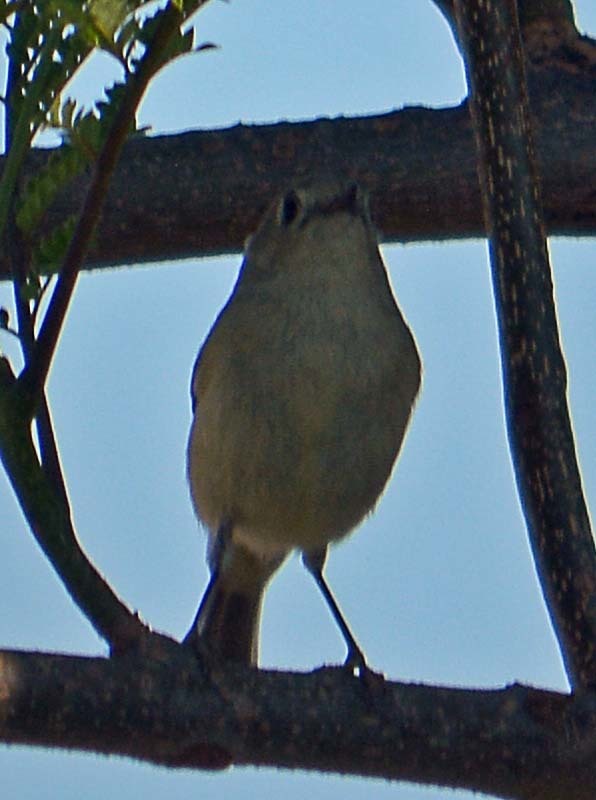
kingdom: Animalia
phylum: Chordata
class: Aves
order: Passeriformes
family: Regulidae
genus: Regulus
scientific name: Regulus calendula
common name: Ruby-crowned kinglet
